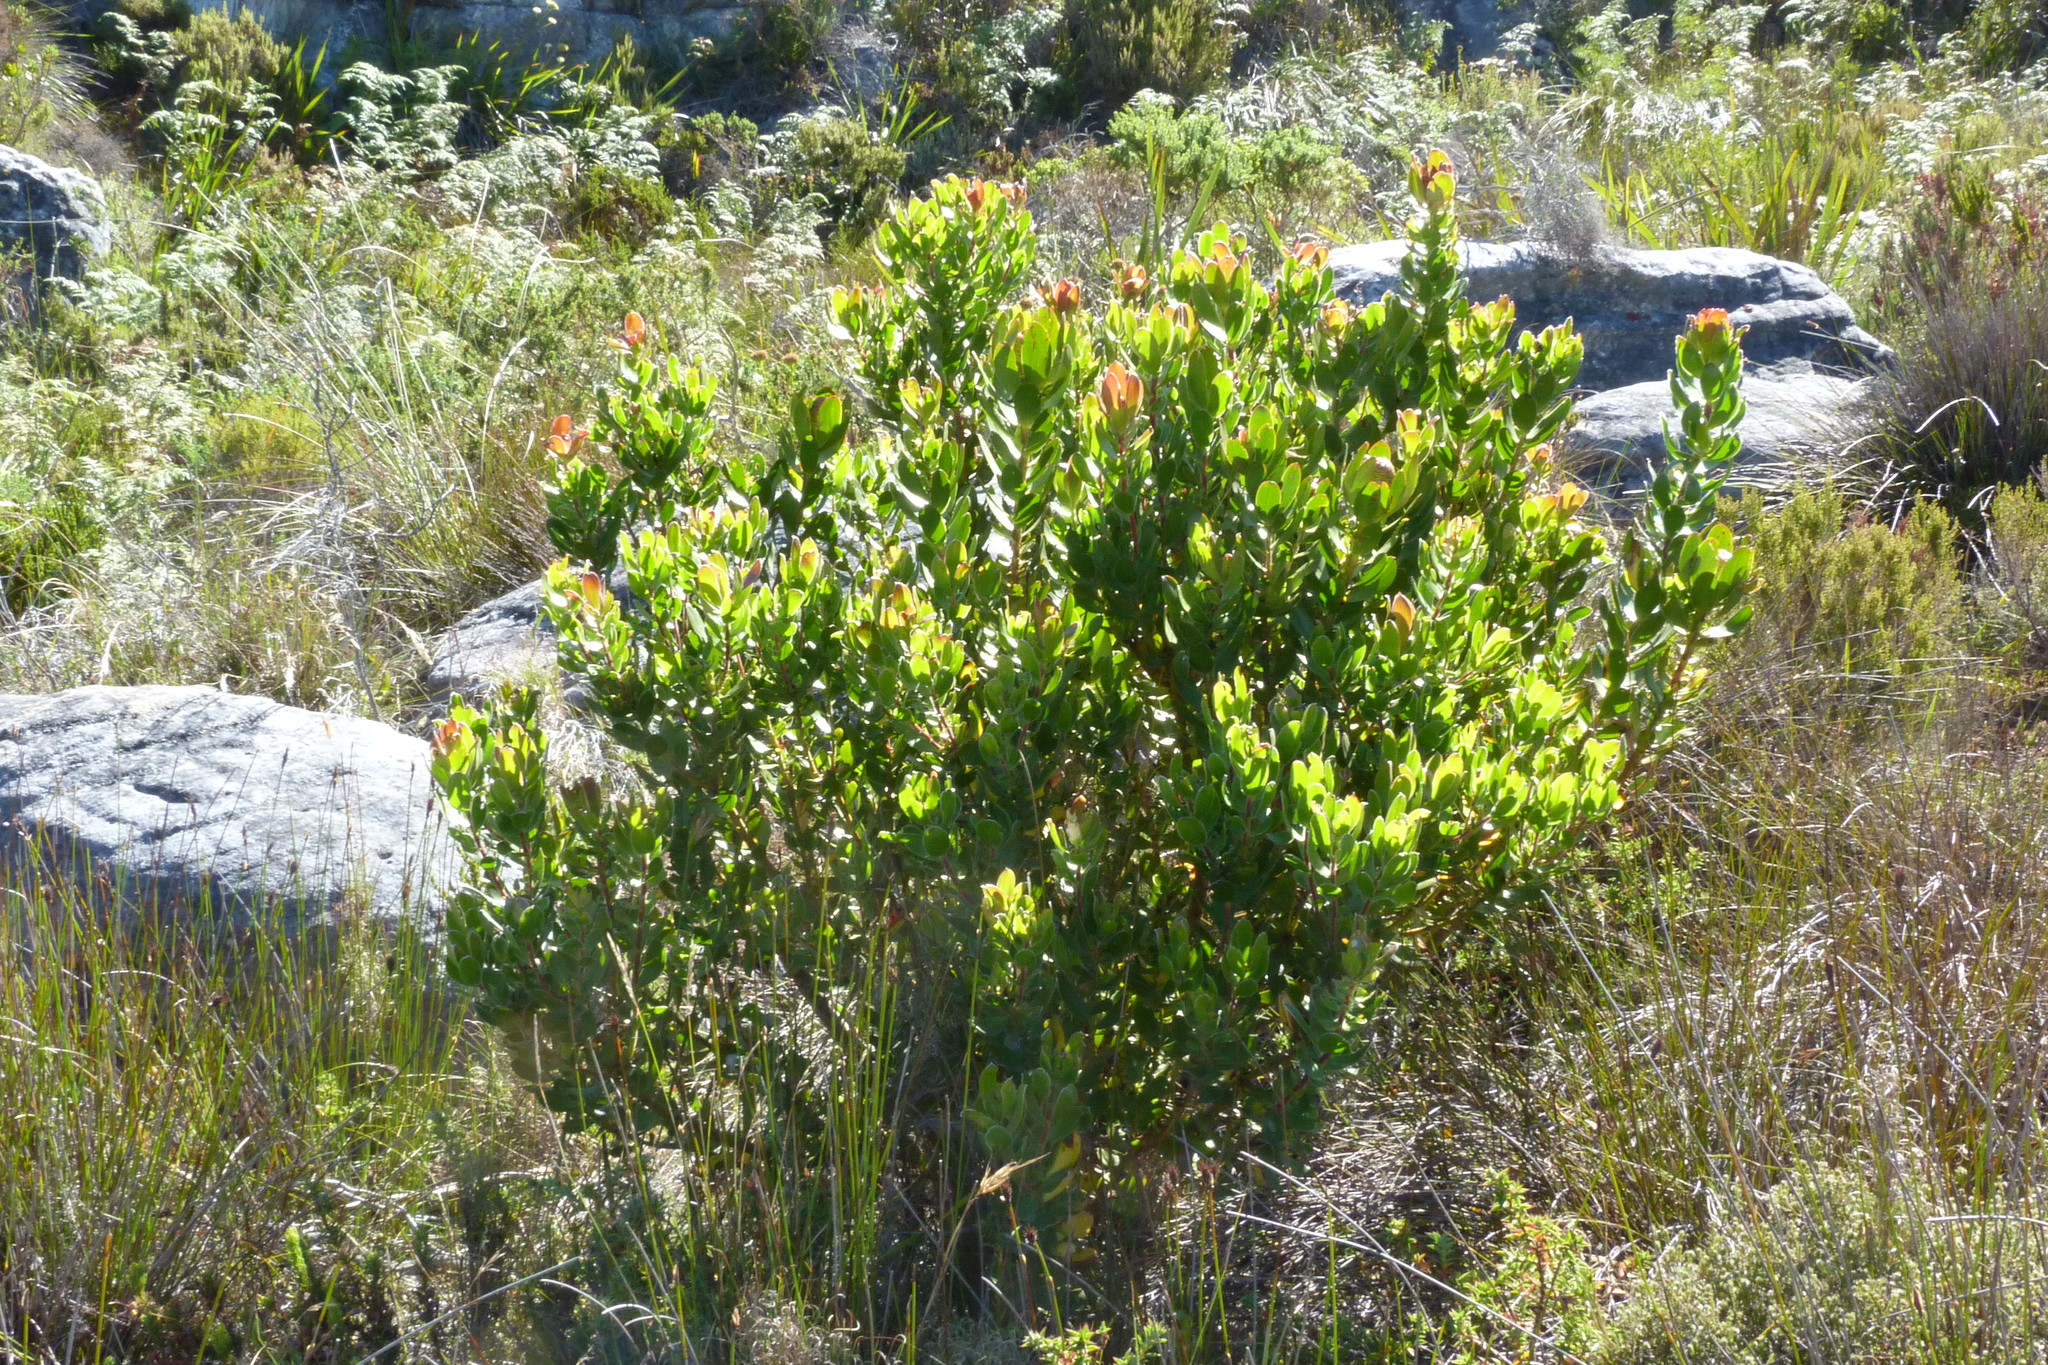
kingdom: Plantae
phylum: Tracheophyta
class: Magnoliopsida
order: Proteales
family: Proteaceae
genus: Leucadendron
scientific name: Leucadendron strobilinum
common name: Mountain rose
